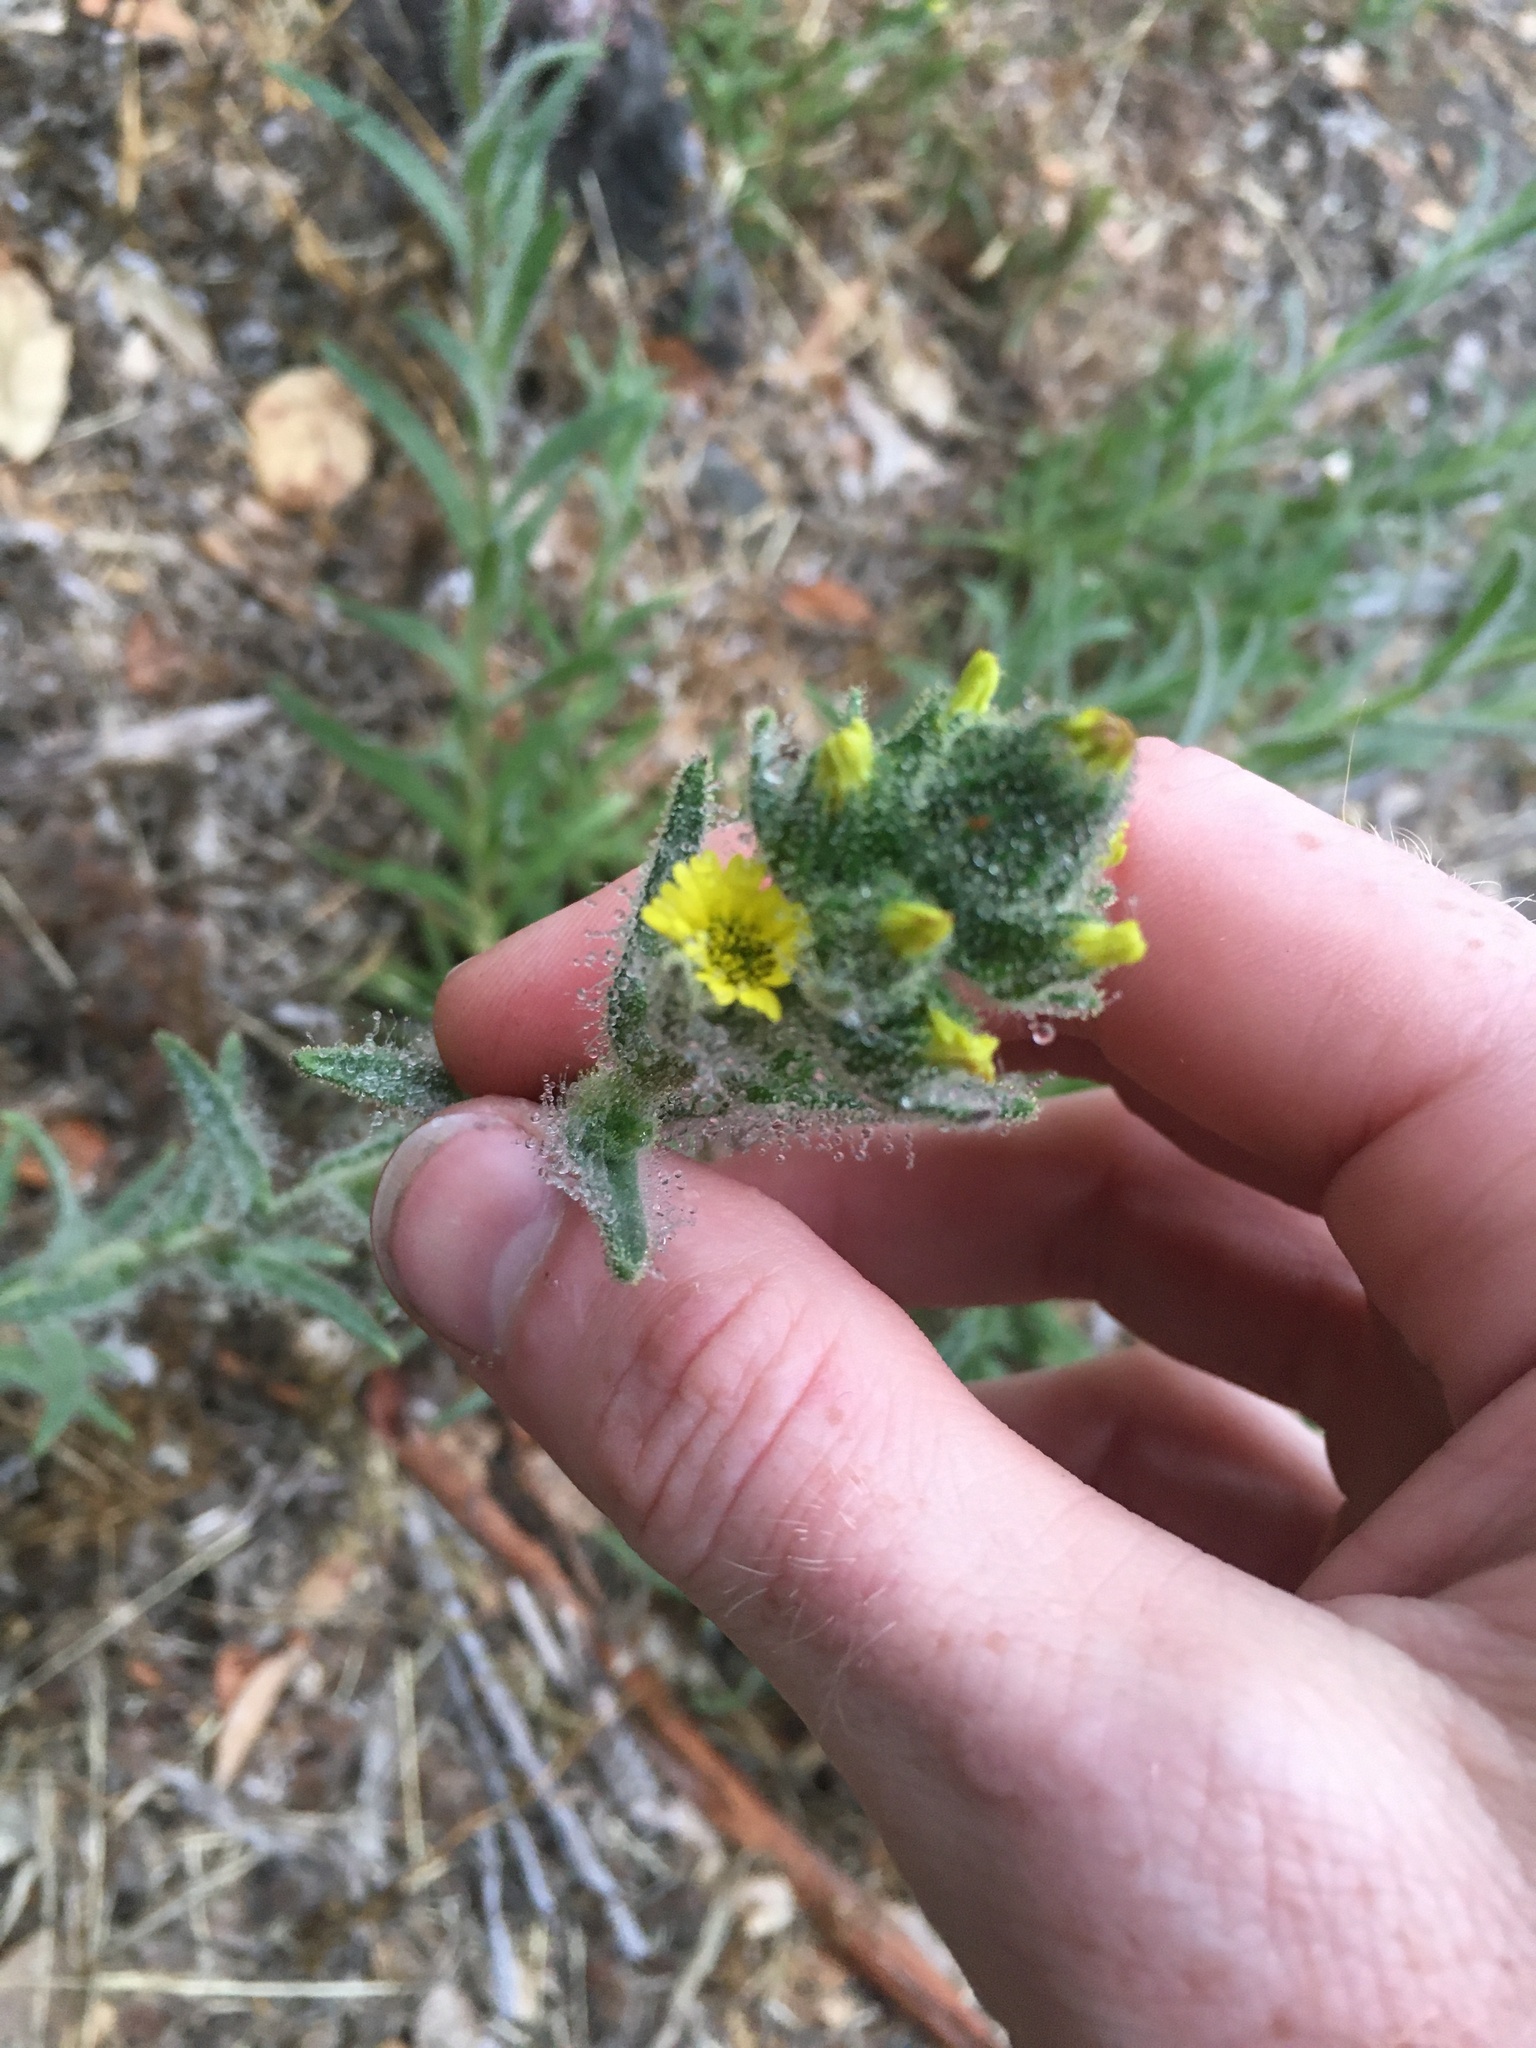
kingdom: Plantae
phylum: Tracheophyta
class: Magnoliopsida
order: Asterales
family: Asteraceae
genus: Madia
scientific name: Madia sativa
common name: Coast tarweed
